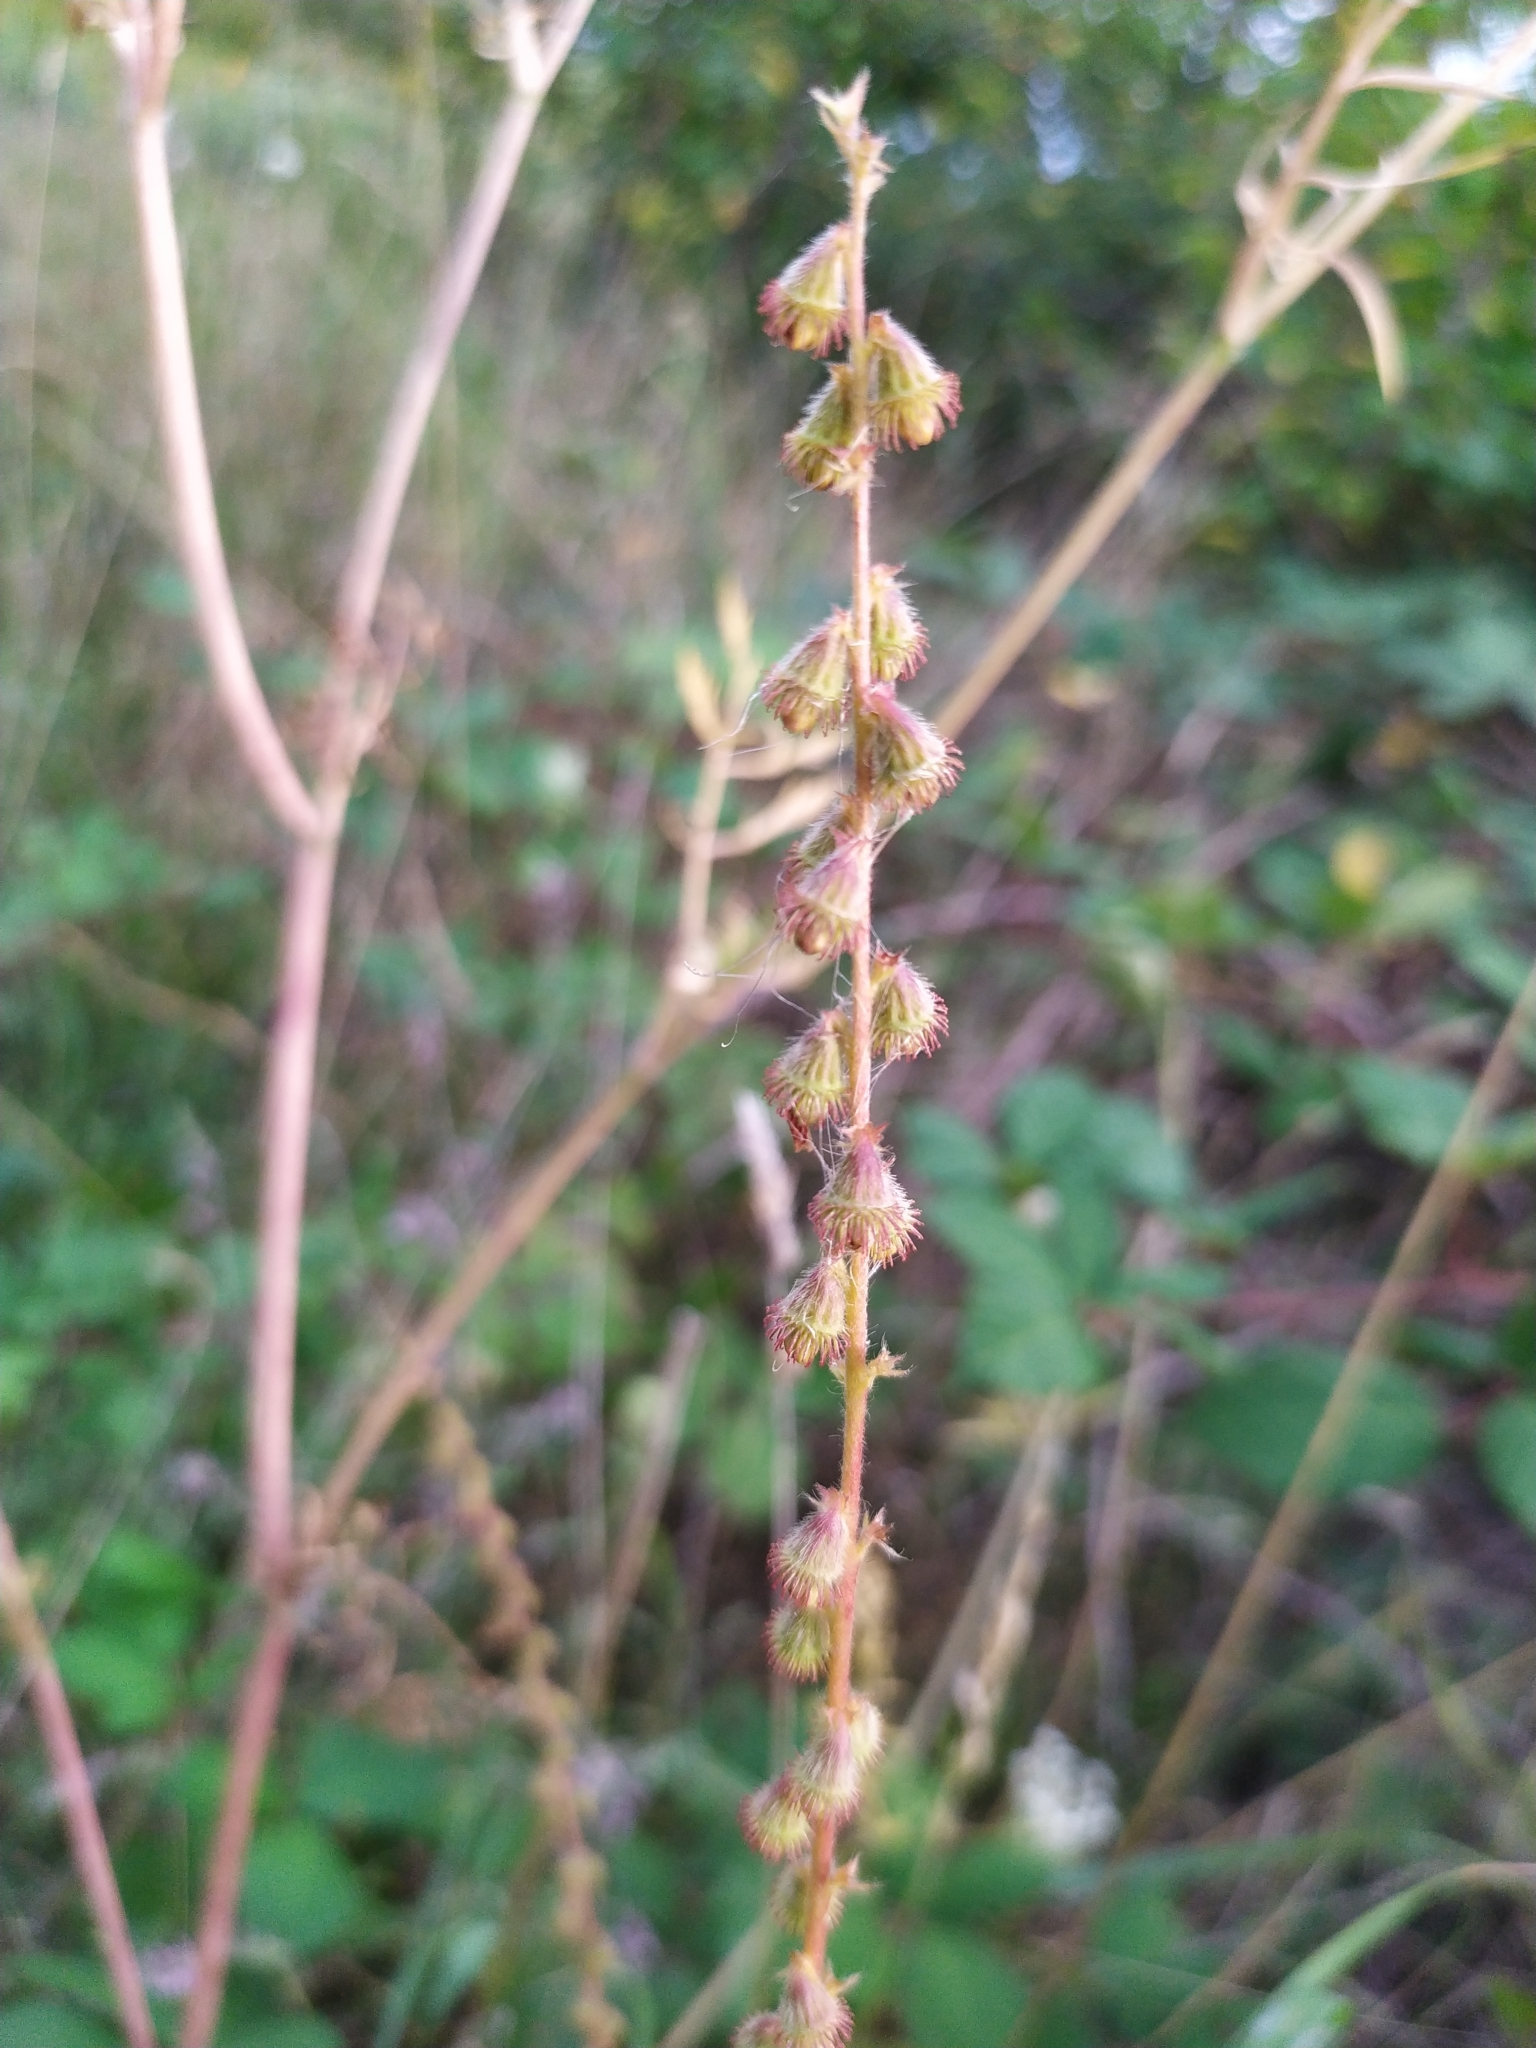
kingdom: Plantae
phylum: Tracheophyta
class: Magnoliopsida
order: Rosales
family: Rosaceae
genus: Agrimonia
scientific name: Agrimonia eupatoria
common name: Agrimony
